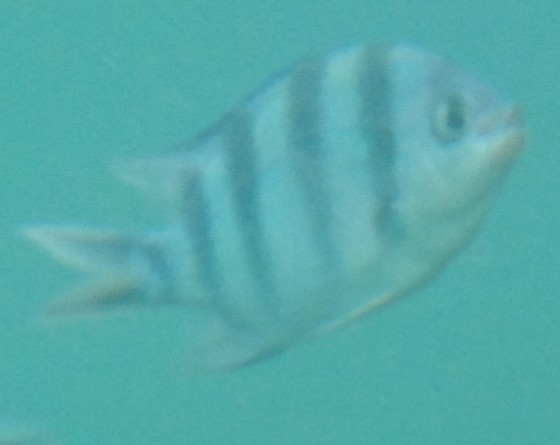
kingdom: Animalia
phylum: Chordata
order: Perciformes
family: Pomacentridae
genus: Abudefduf
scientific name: Abudefduf sexfasciatus
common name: Scissortail sergeant
